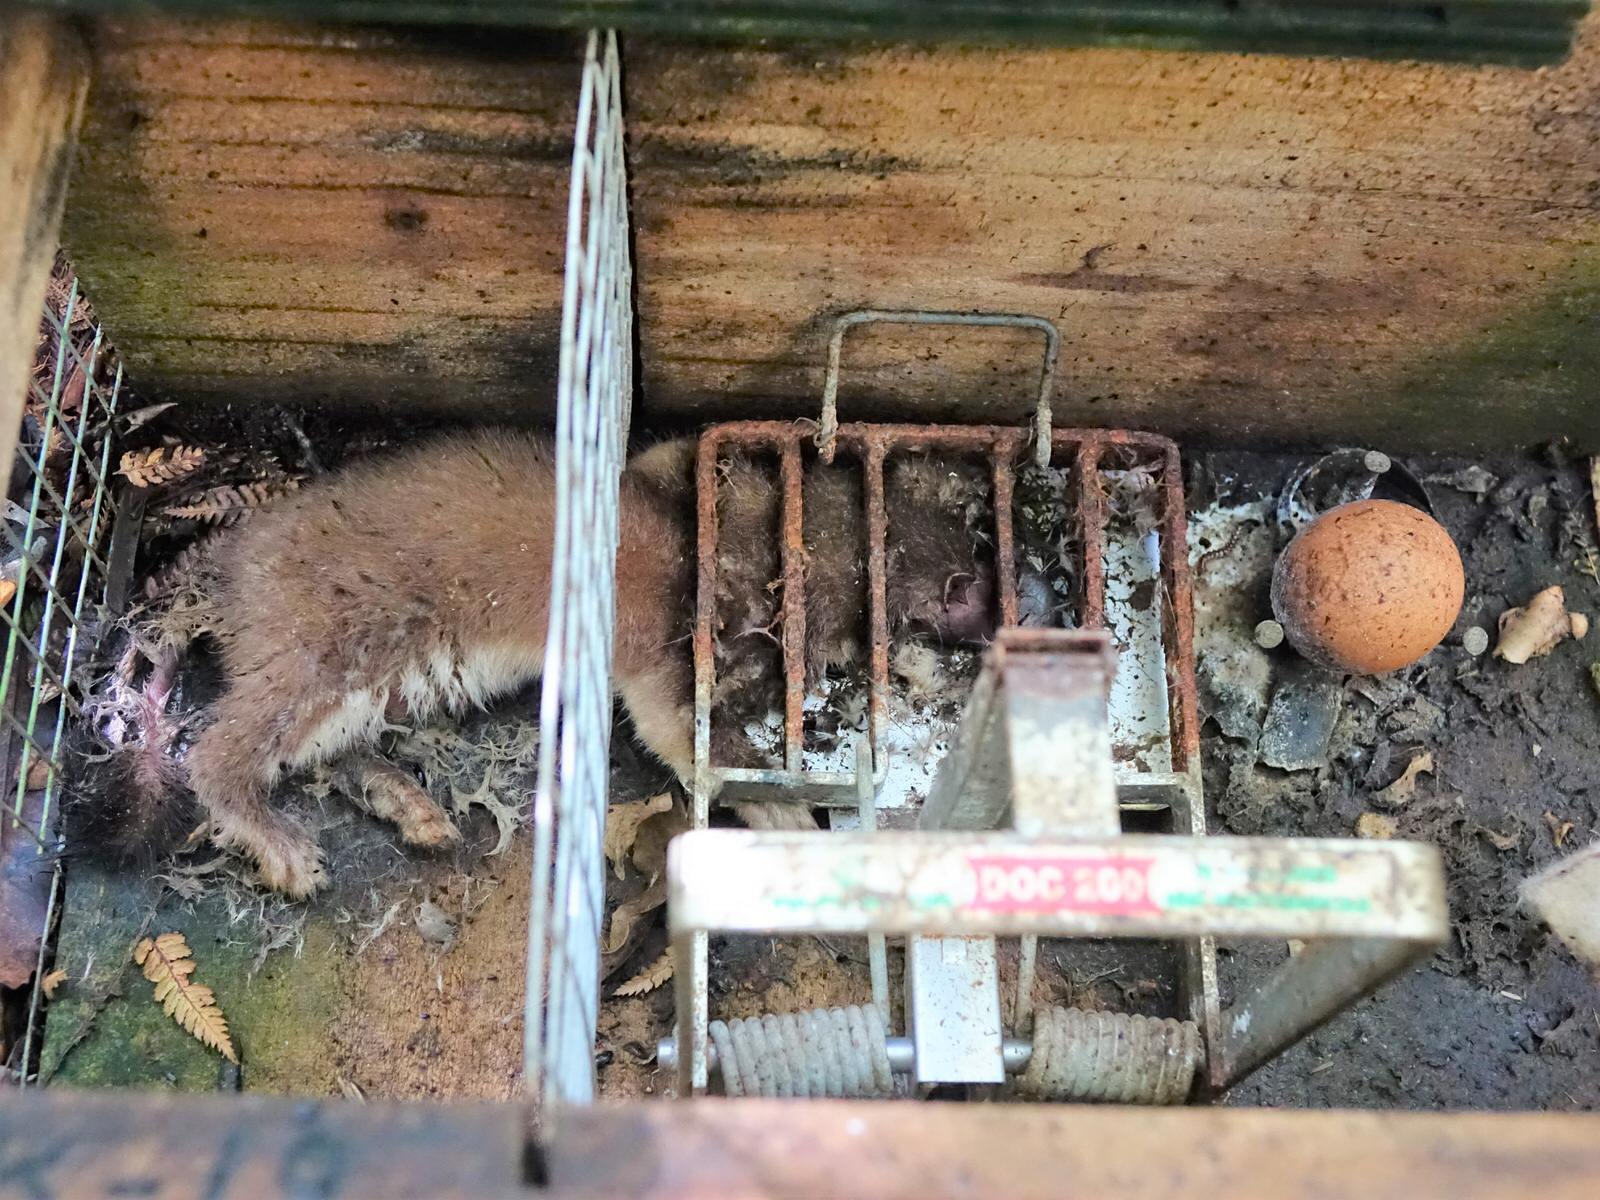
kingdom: Animalia
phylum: Chordata
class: Mammalia
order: Carnivora
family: Mustelidae
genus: Mustela
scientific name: Mustela erminea
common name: Stoat
